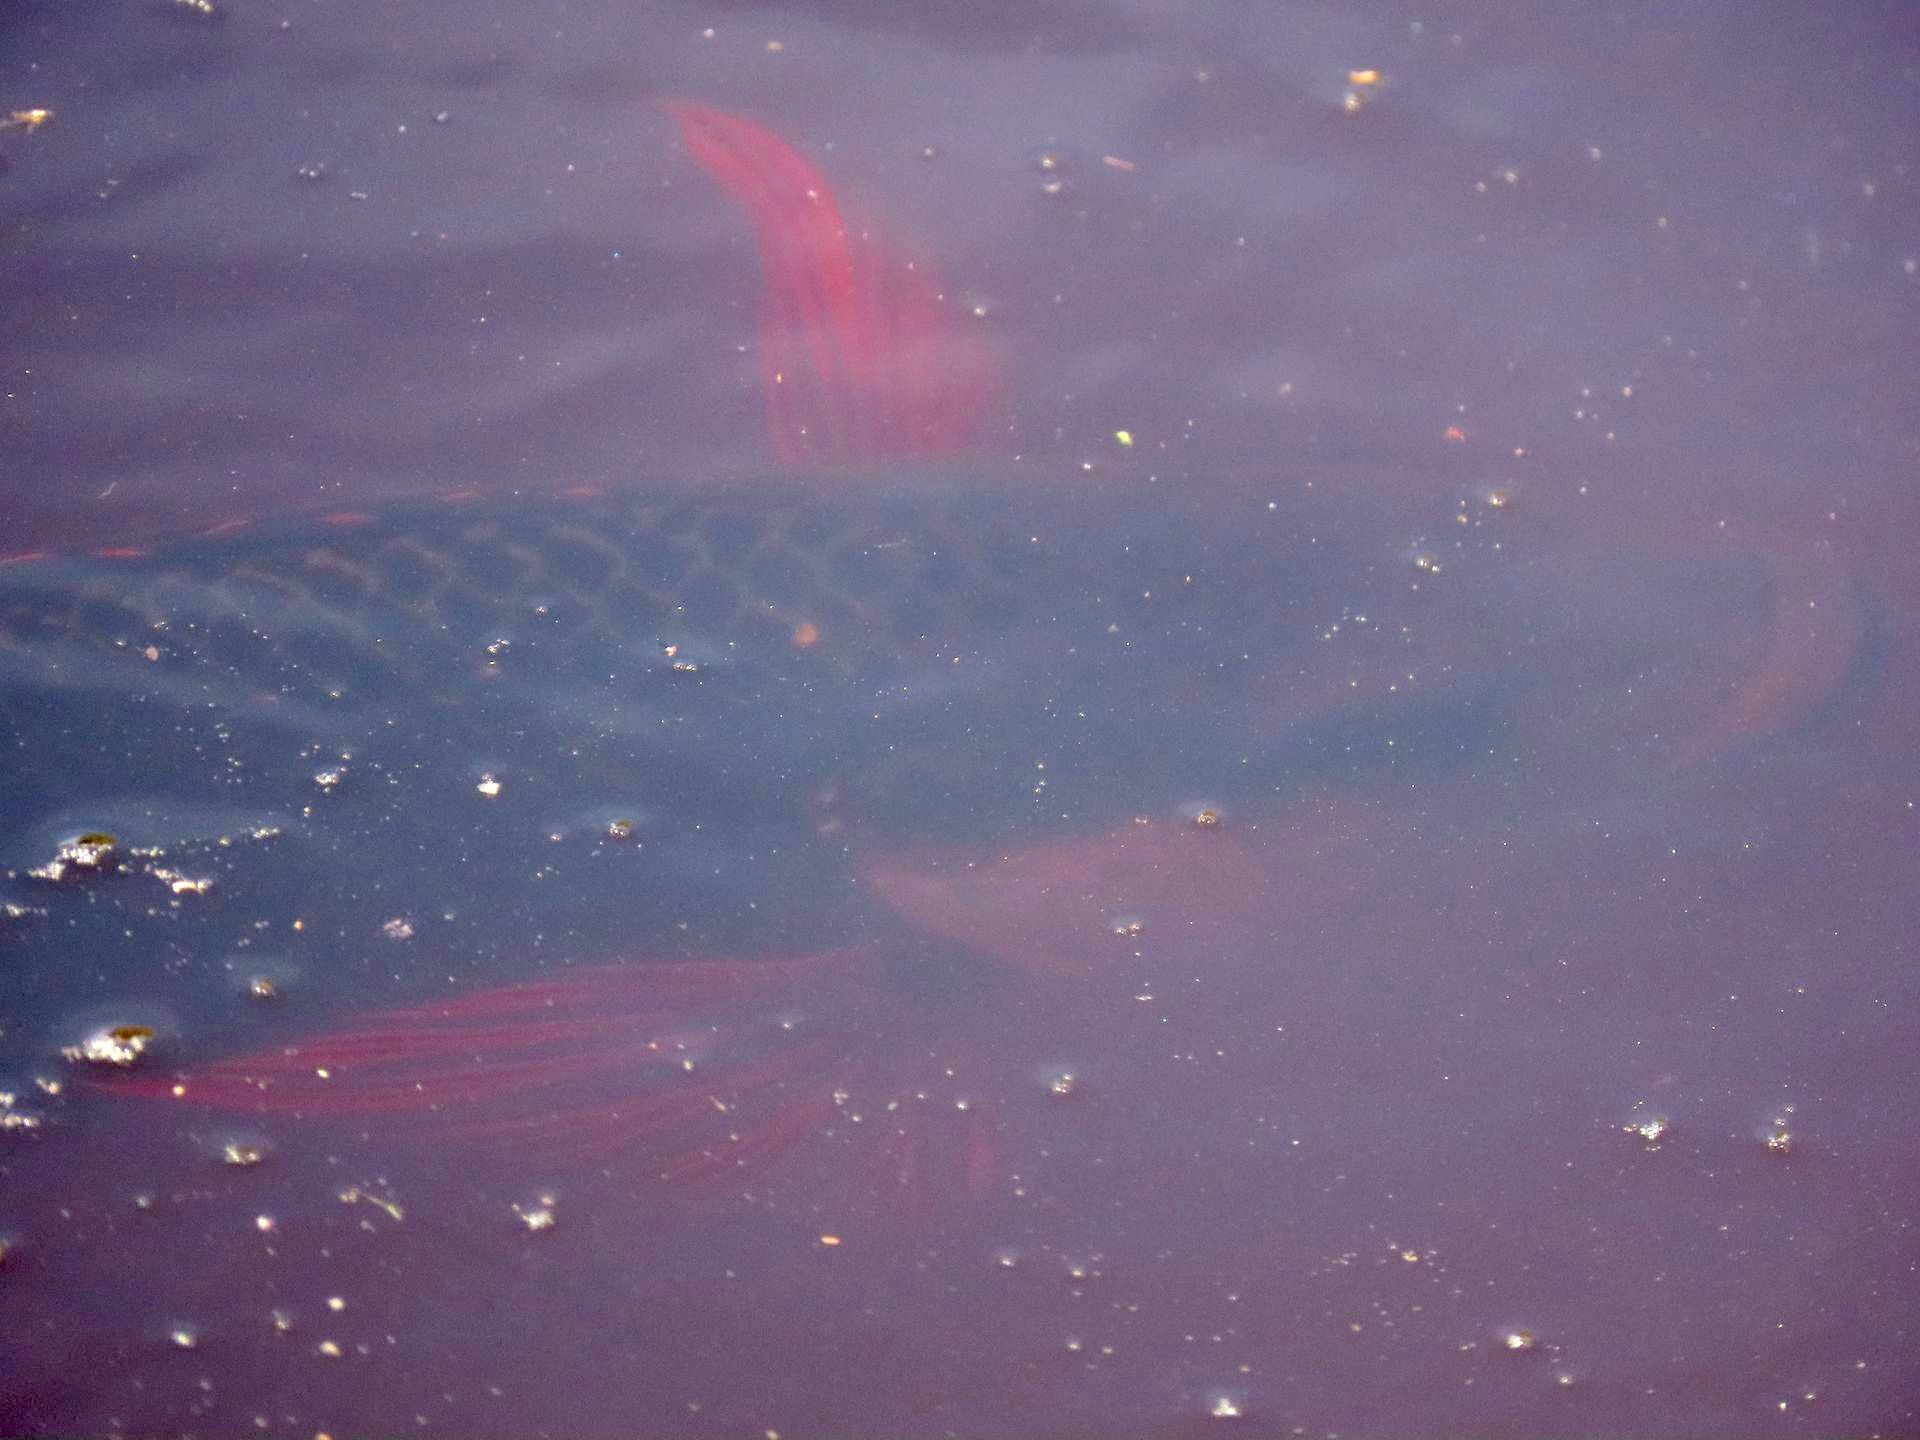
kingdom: Animalia
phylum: Chordata
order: Perciformes
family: Cichlidae
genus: Oreochromis
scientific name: Oreochromis mossambicus
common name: Mozambique tilapia
